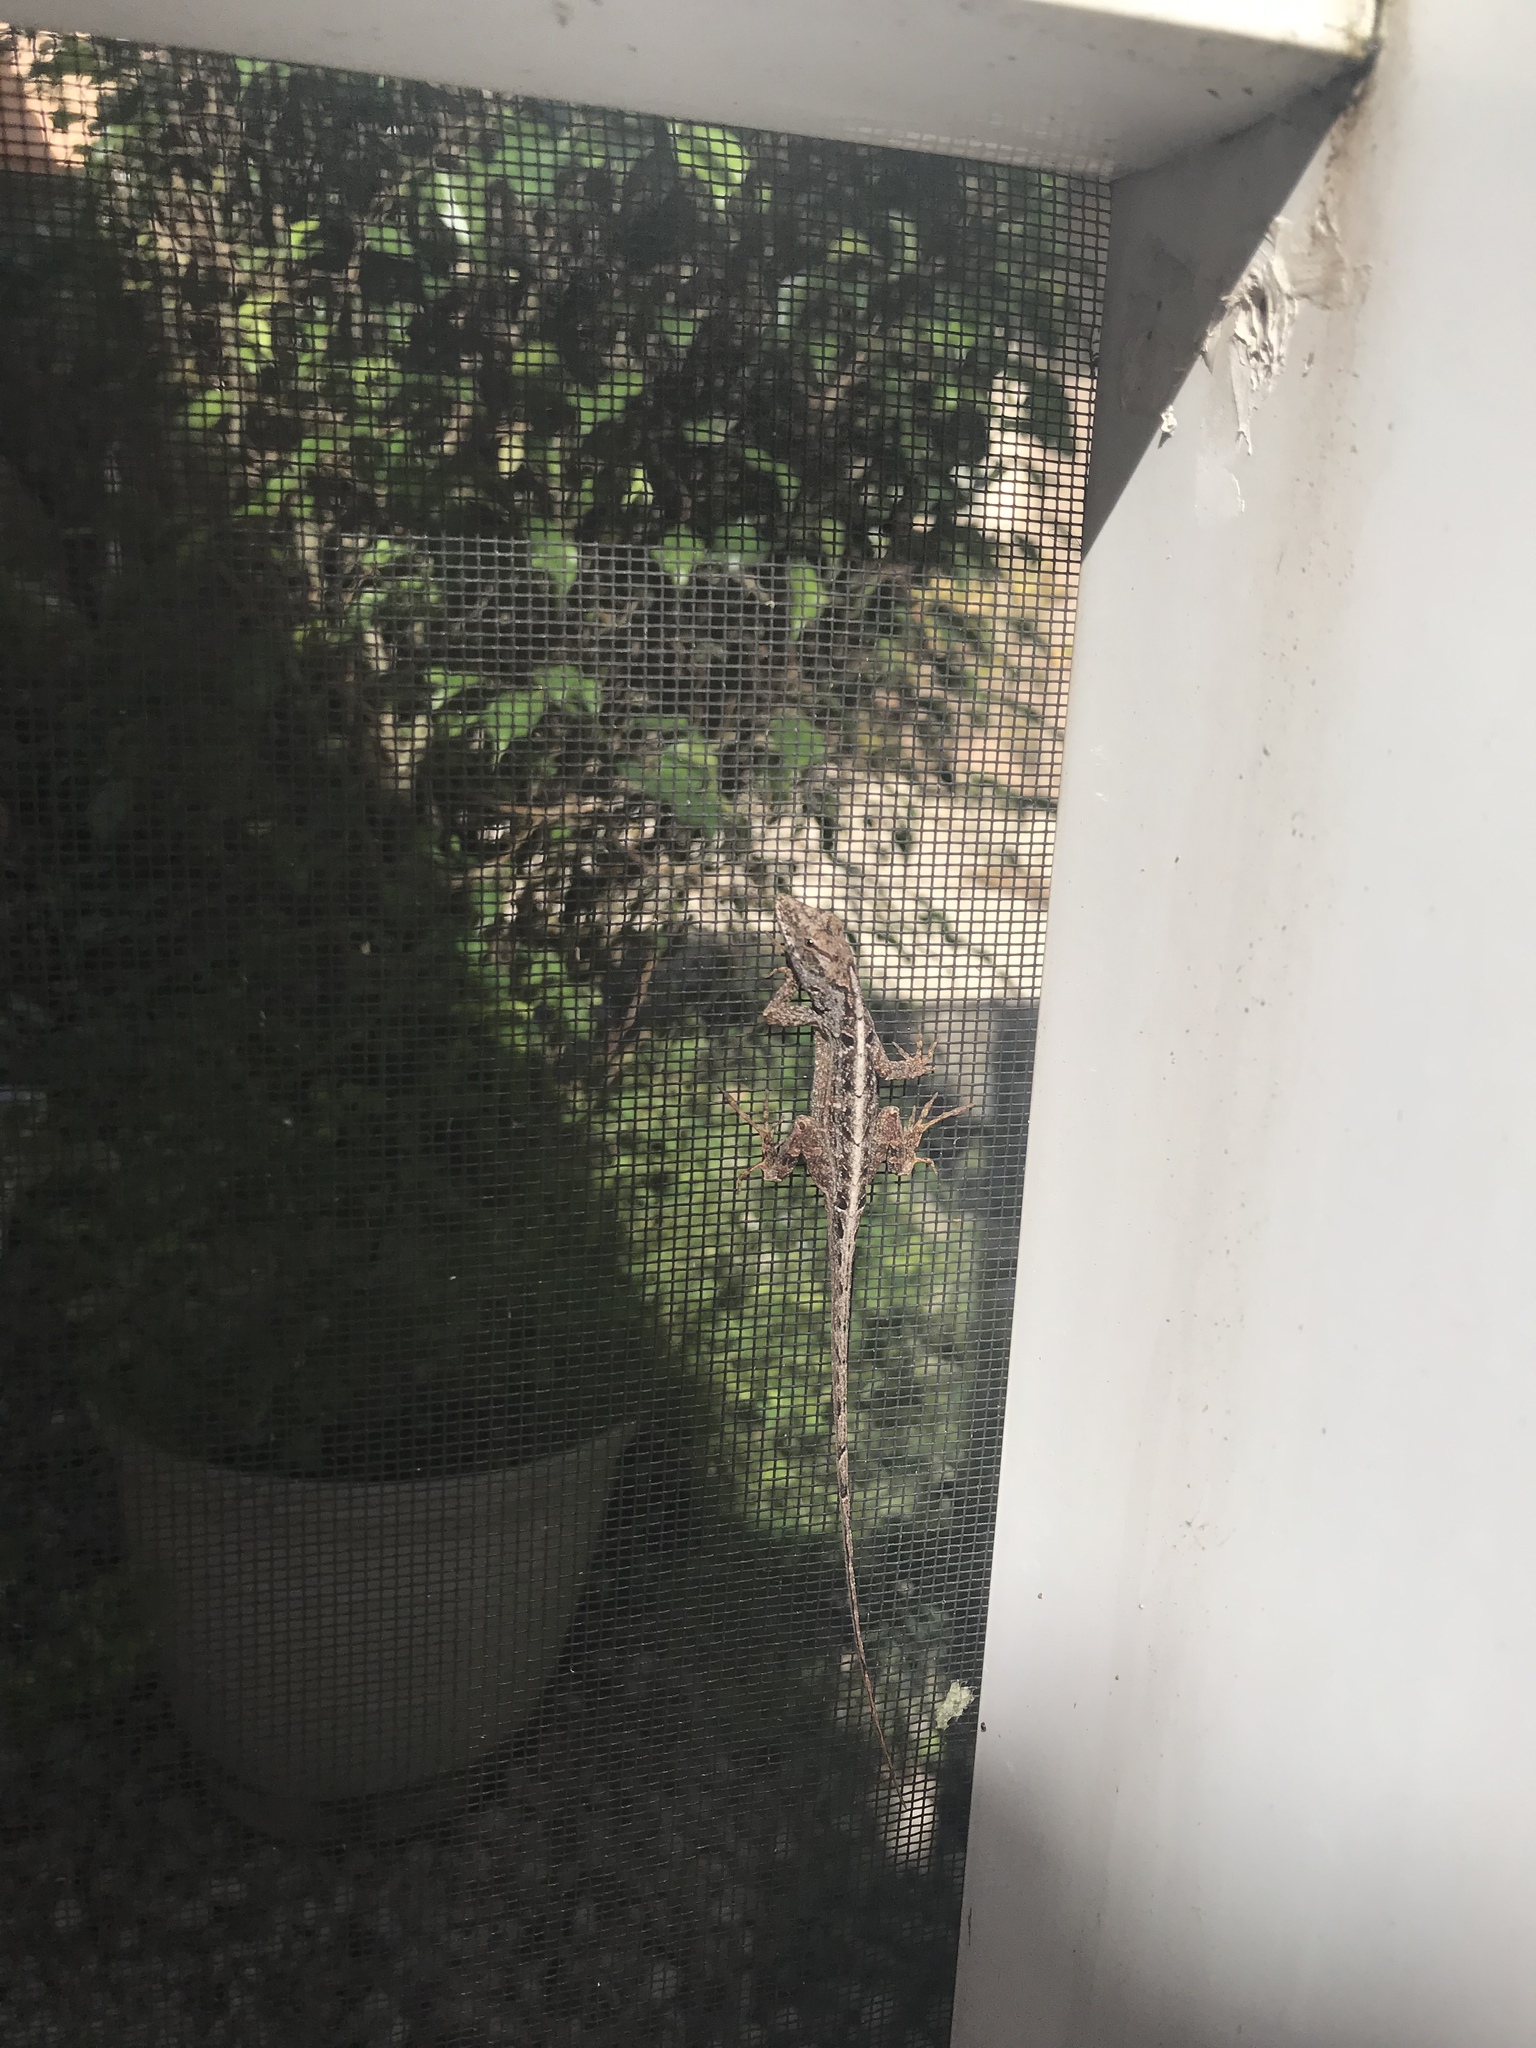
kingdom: Animalia
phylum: Chordata
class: Squamata
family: Dactyloidae
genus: Anolis
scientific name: Anolis sagrei
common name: Brown anole
